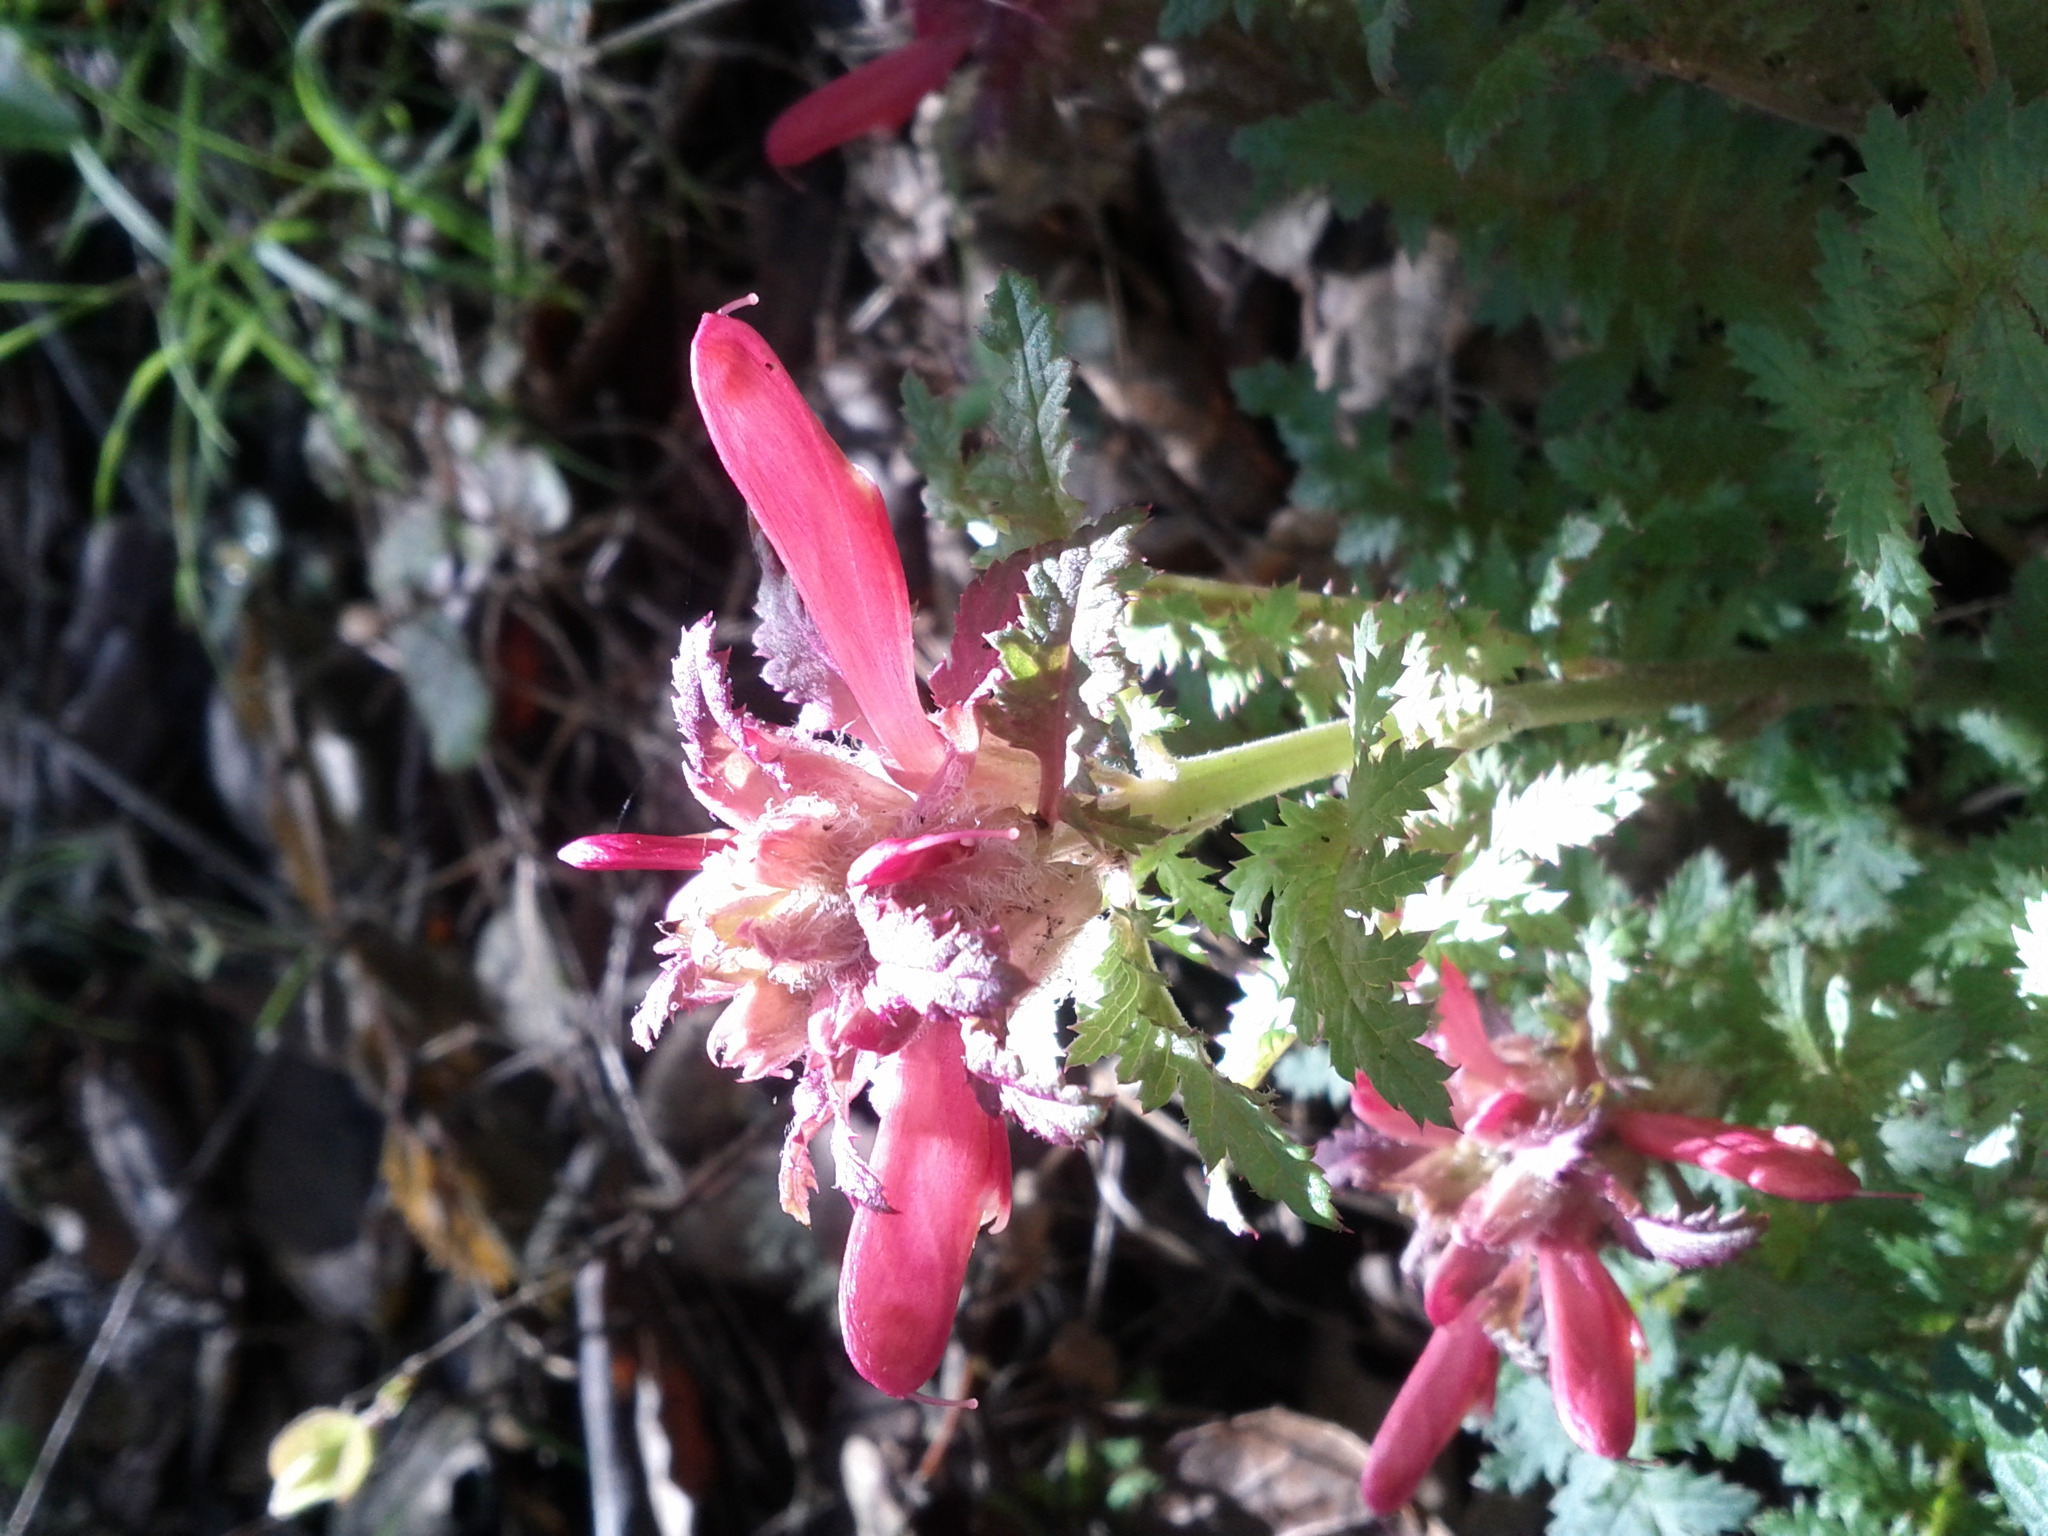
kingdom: Plantae
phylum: Tracheophyta
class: Magnoliopsida
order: Lamiales
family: Orobanchaceae
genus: Pedicularis
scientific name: Pedicularis densiflora
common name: Indian warrior
